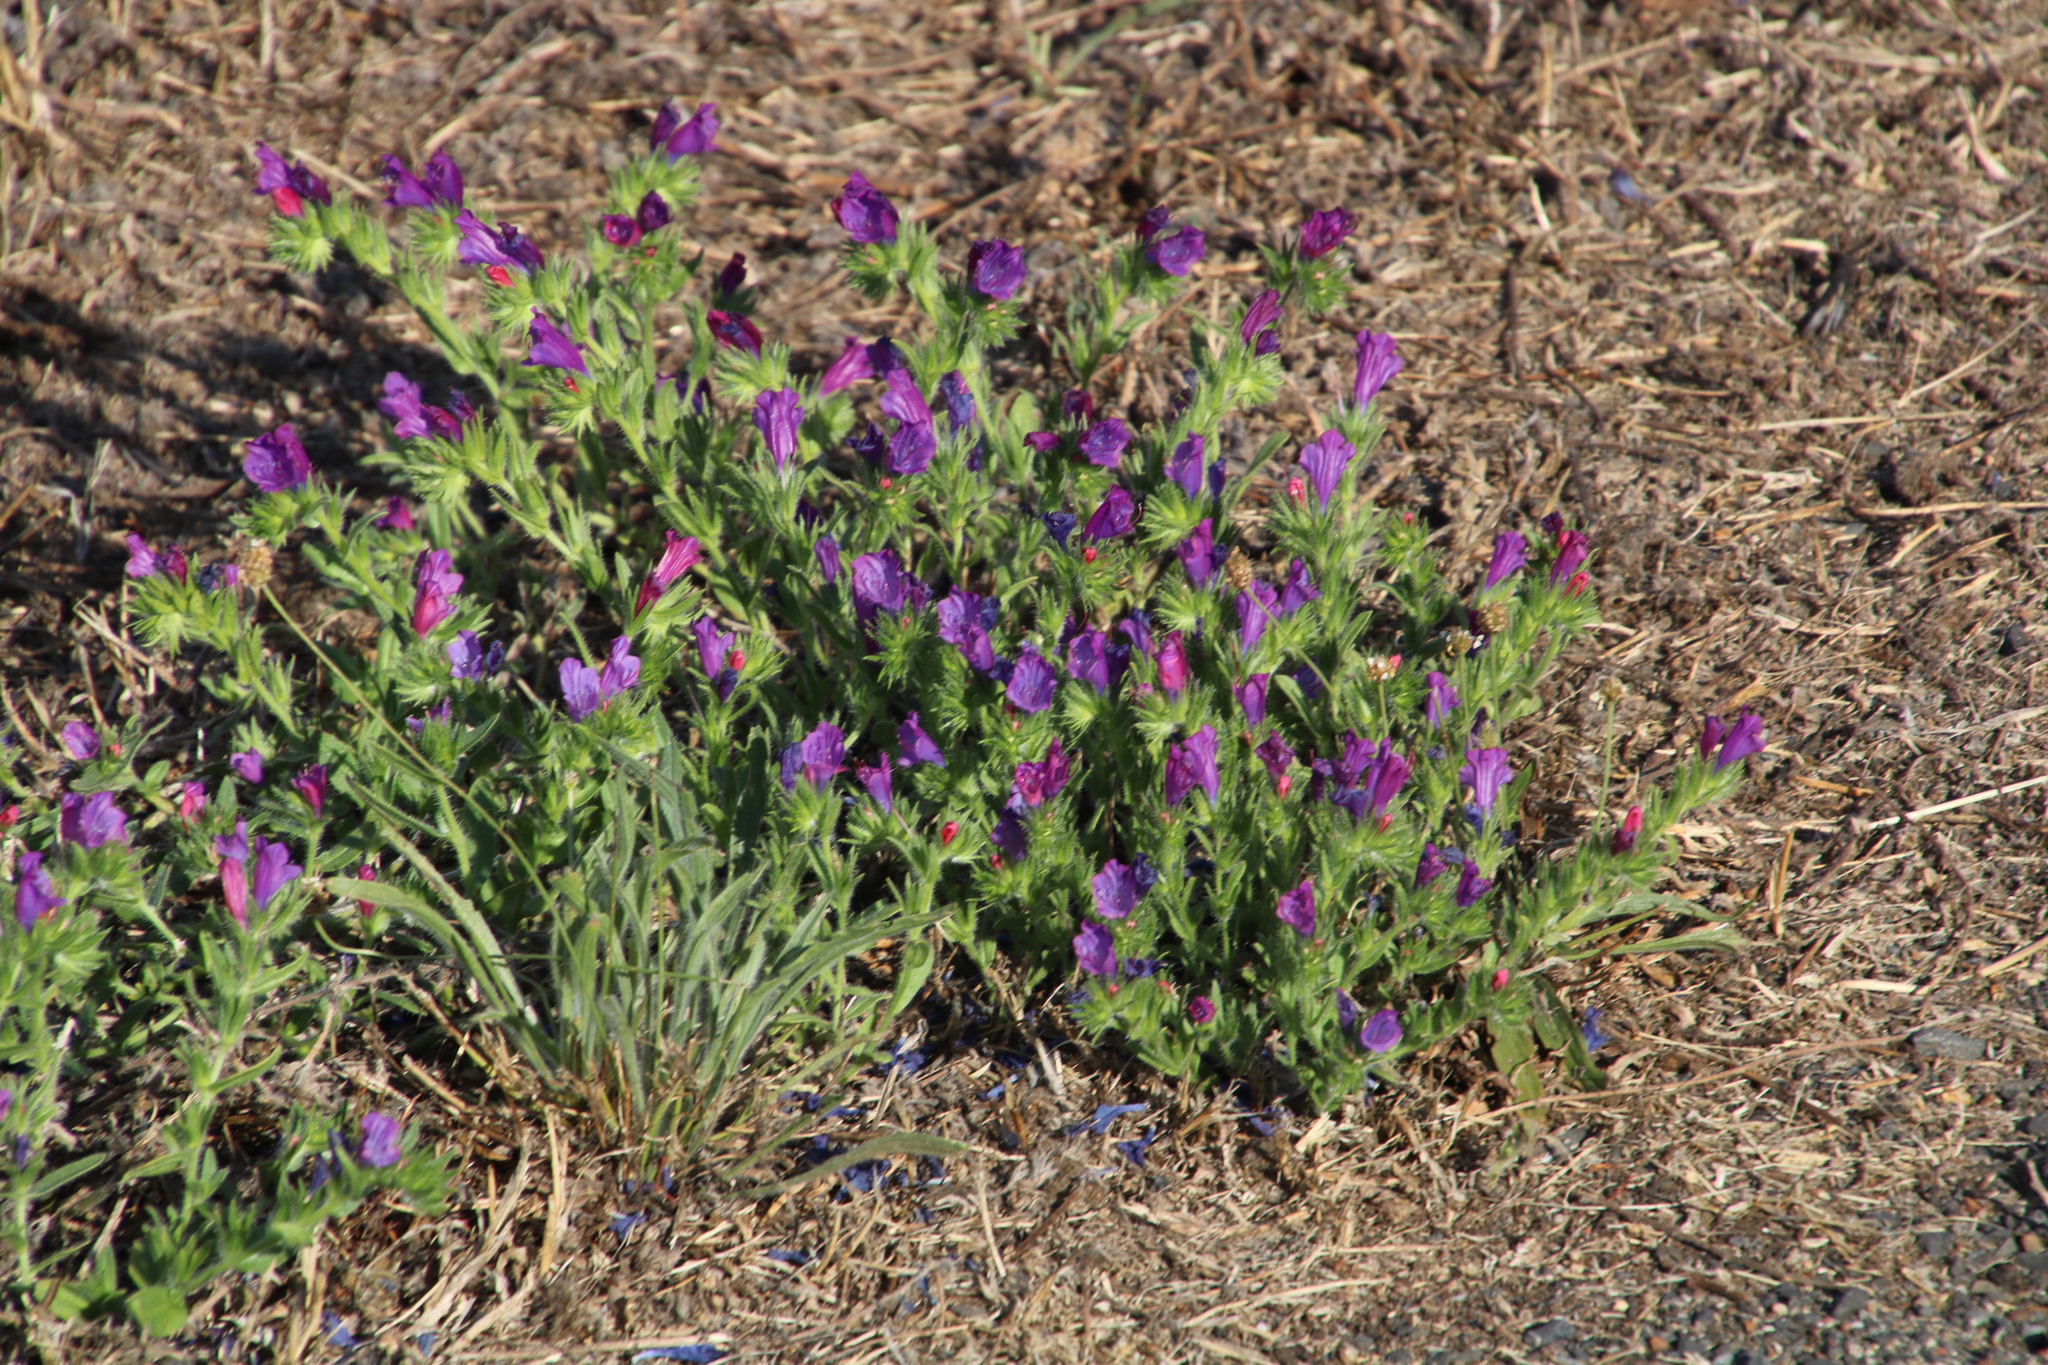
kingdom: Plantae
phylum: Tracheophyta
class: Magnoliopsida
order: Boraginales
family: Boraginaceae
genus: Echium
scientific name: Echium plantagineum
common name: Purple viper's-bugloss
